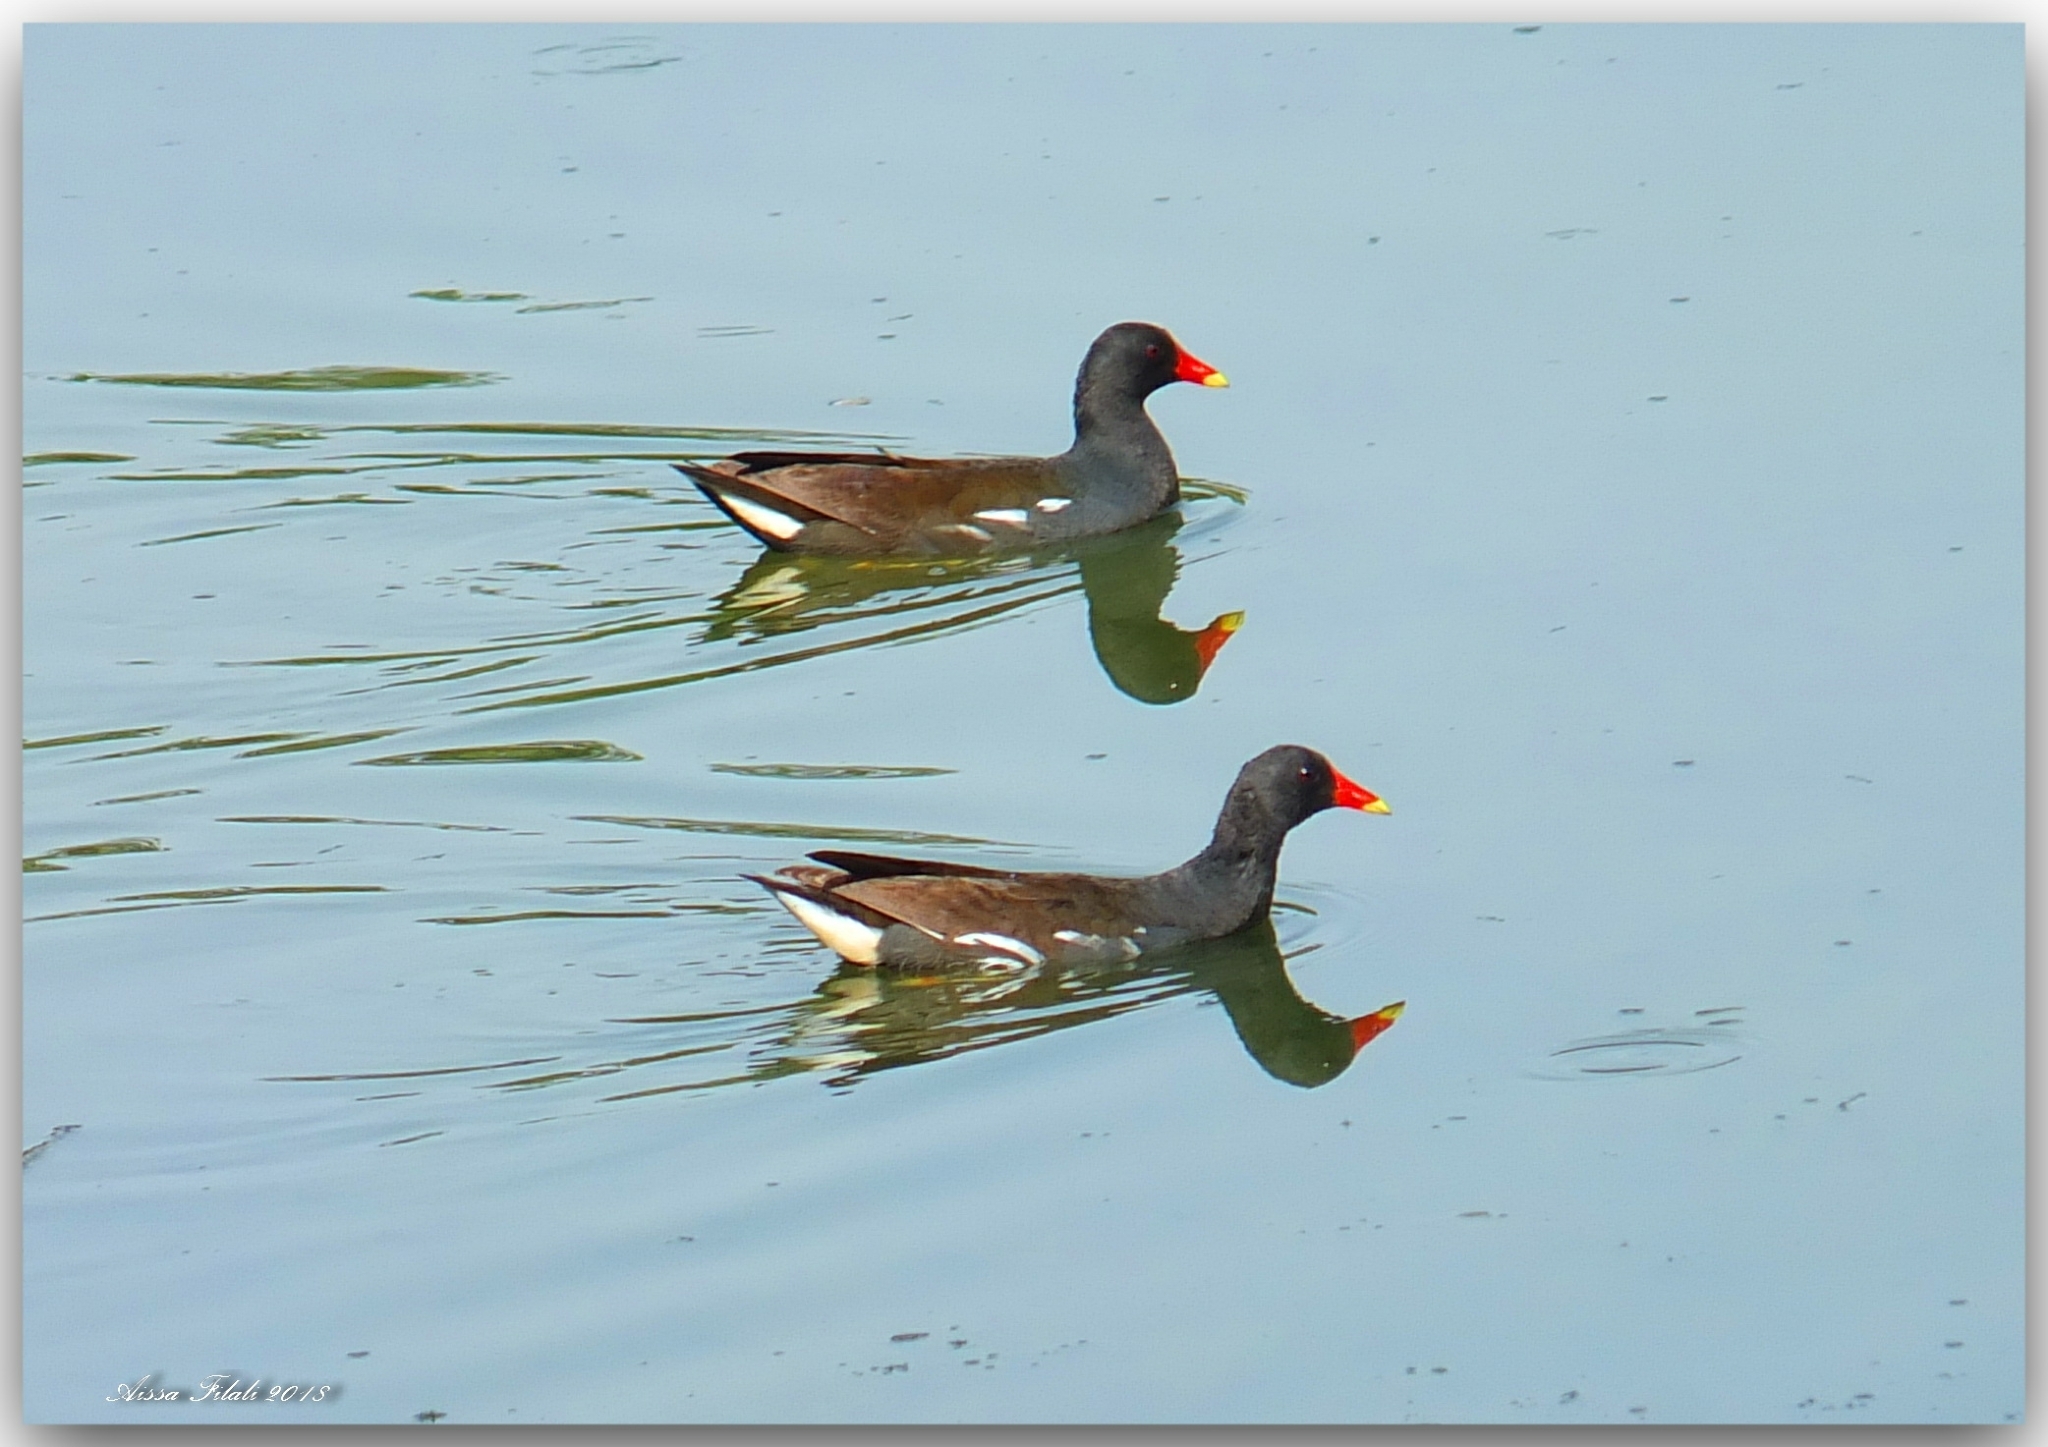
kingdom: Animalia
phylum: Chordata
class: Aves
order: Gruiformes
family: Rallidae
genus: Gallinula
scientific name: Gallinula chloropus
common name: Common moorhen
